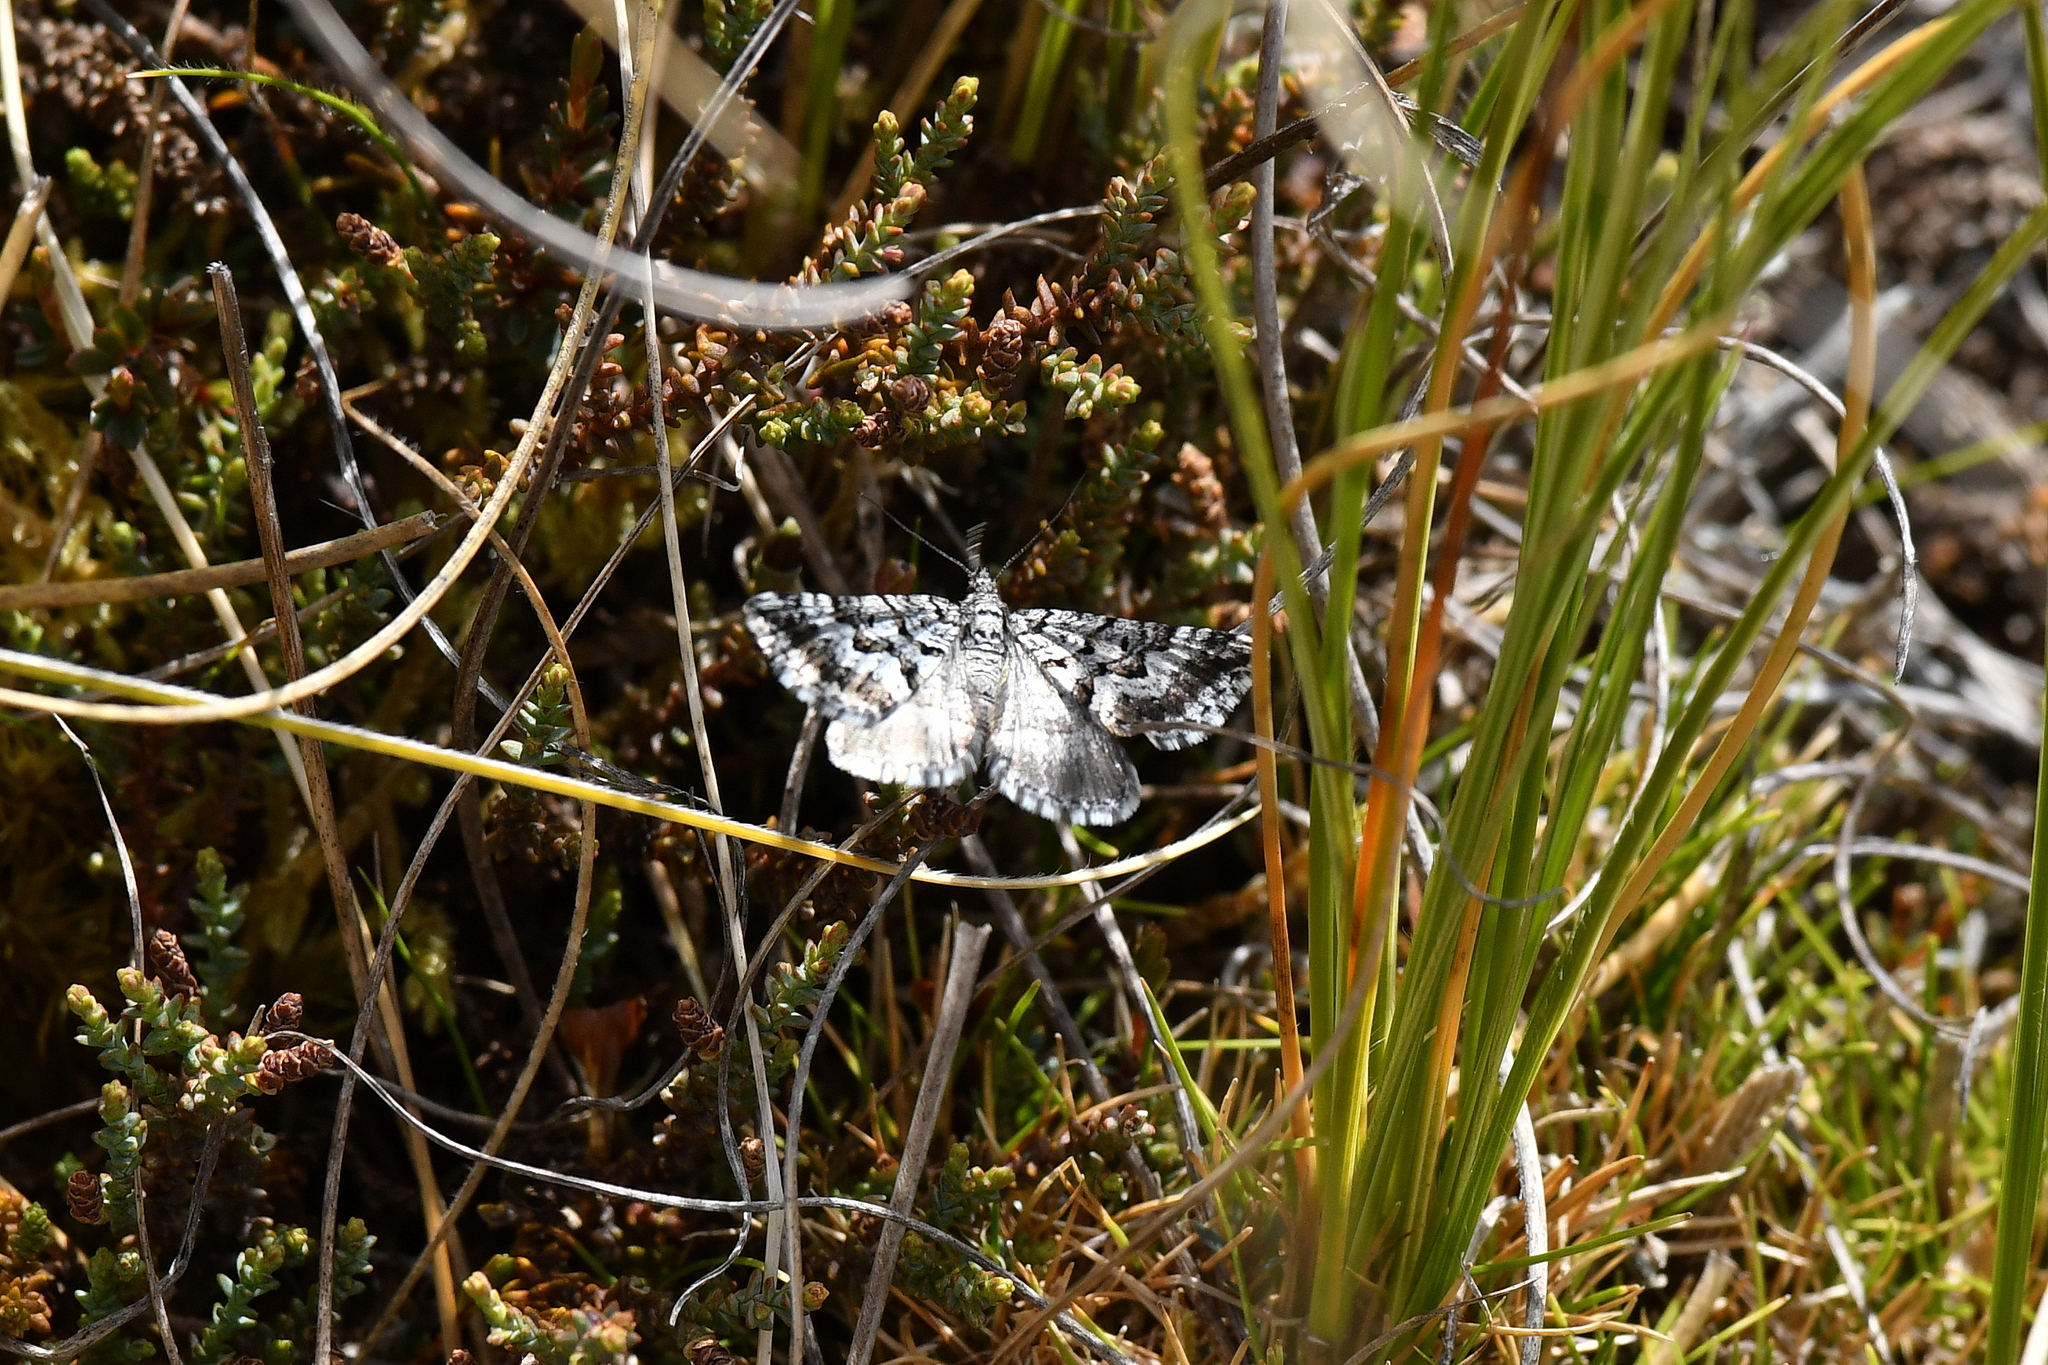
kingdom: Animalia
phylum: Arthropoda
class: Insecta
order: Lepidoptera
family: Geometridae
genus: Aponotoreas
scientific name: Aponotoreas anthracias
